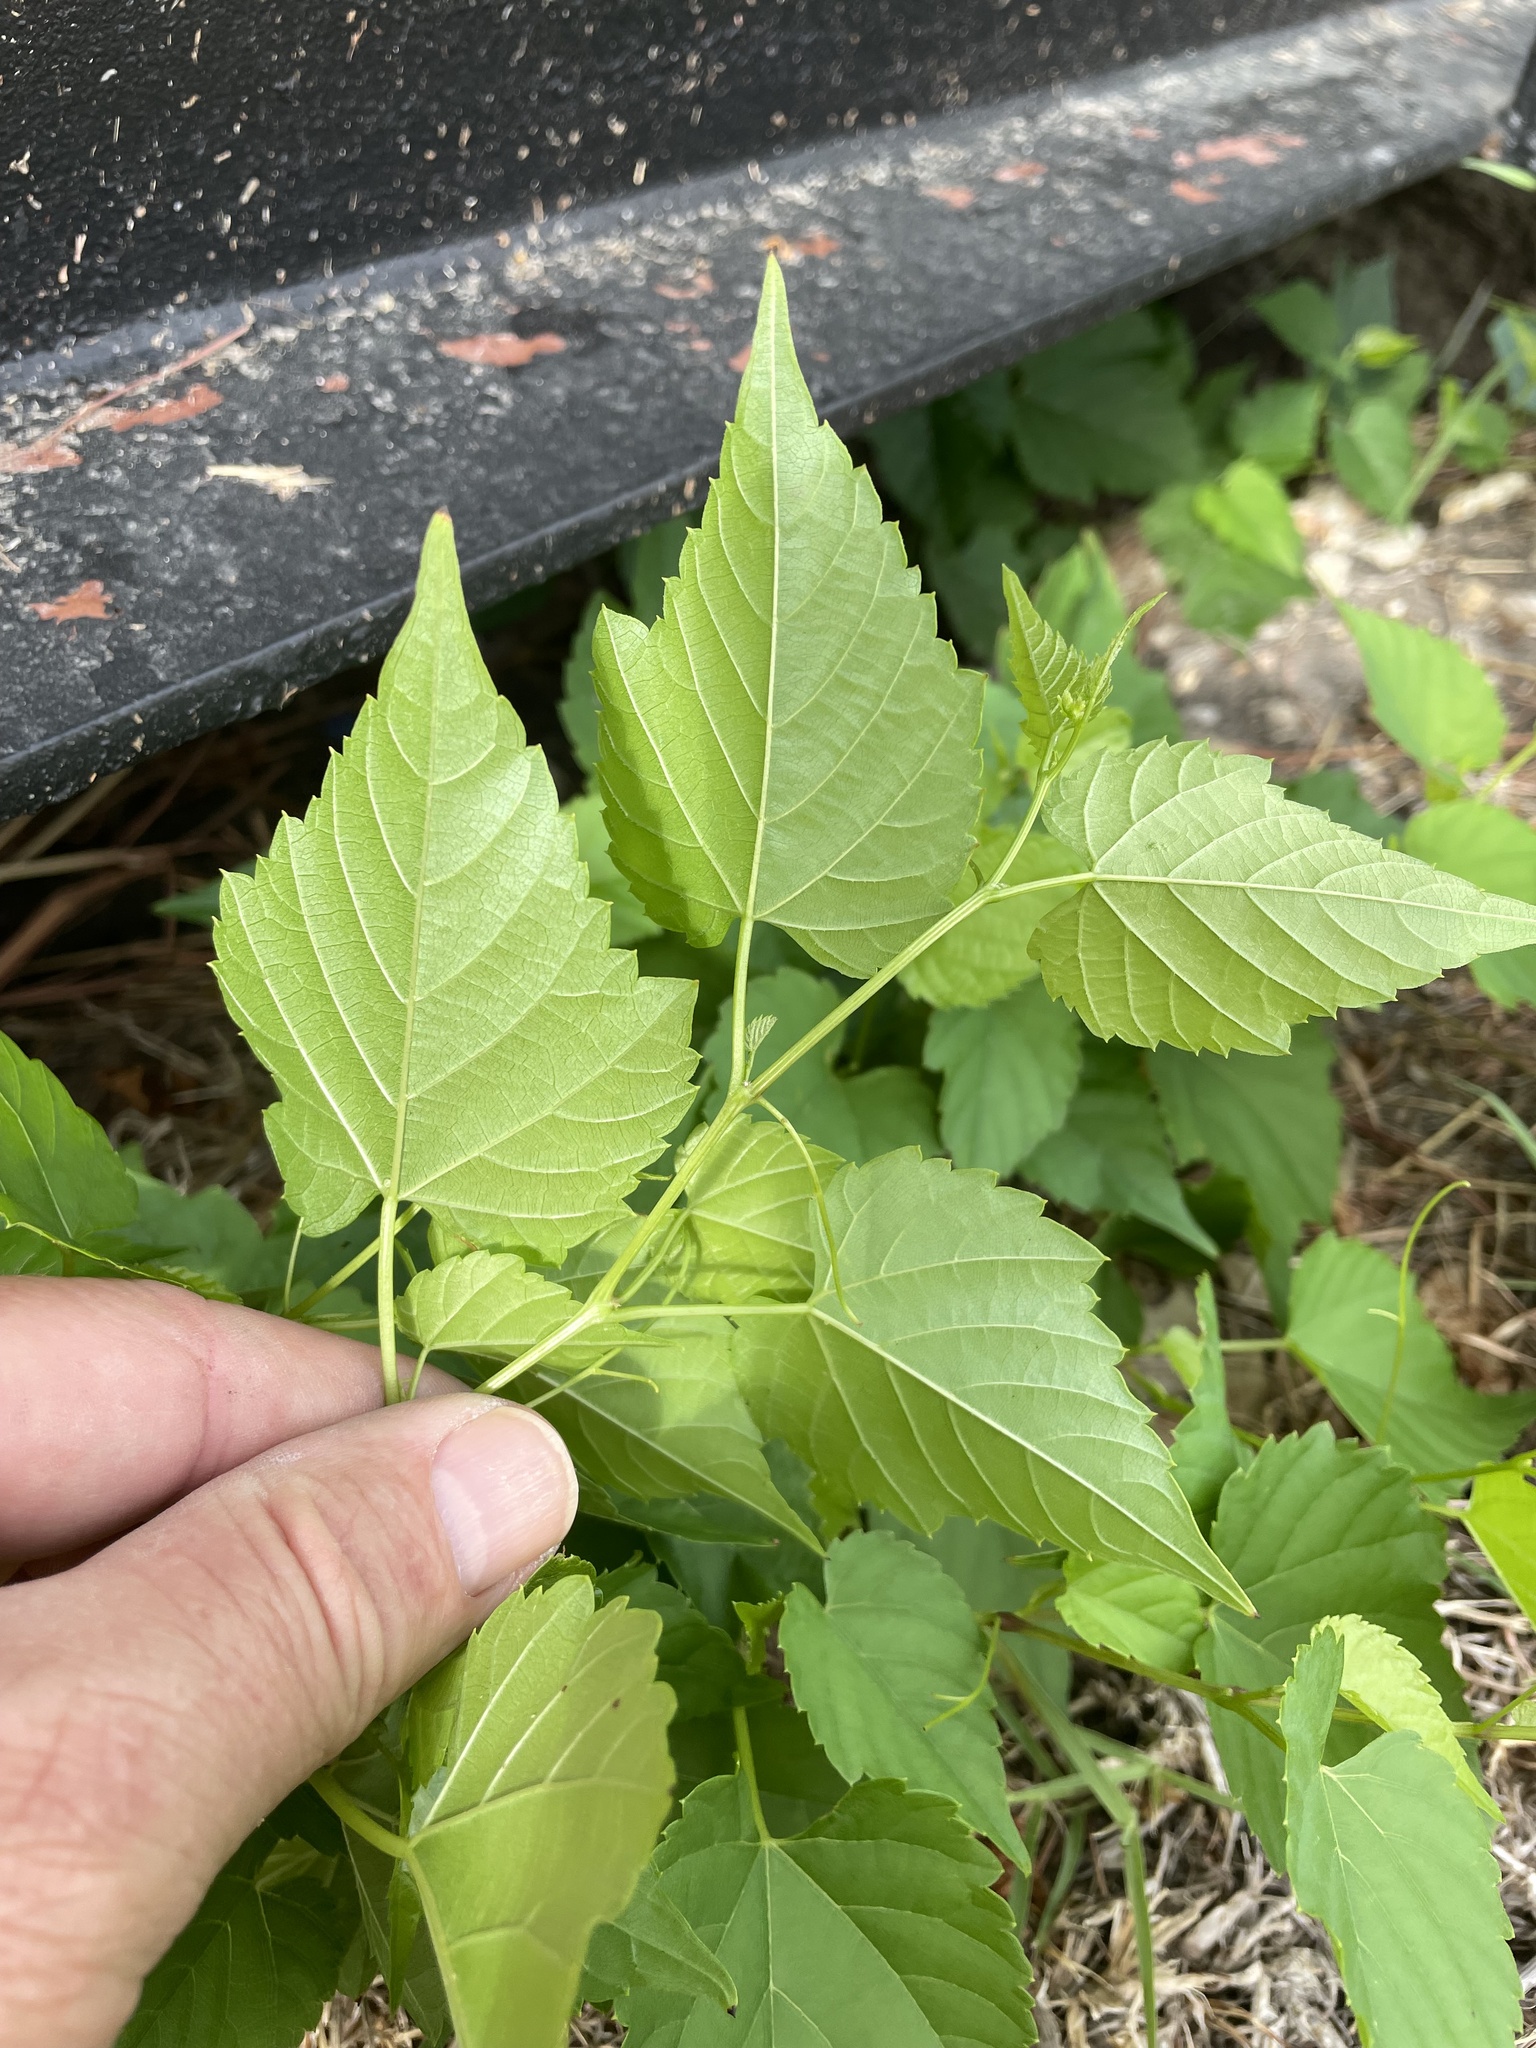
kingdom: Plantae
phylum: Tracheophyta
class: Magnoliopsida
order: Vitales
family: Vitaceae
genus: Ampelopsis
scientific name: Ampelopsis cordata
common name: Heart-leaf ampelopsis
